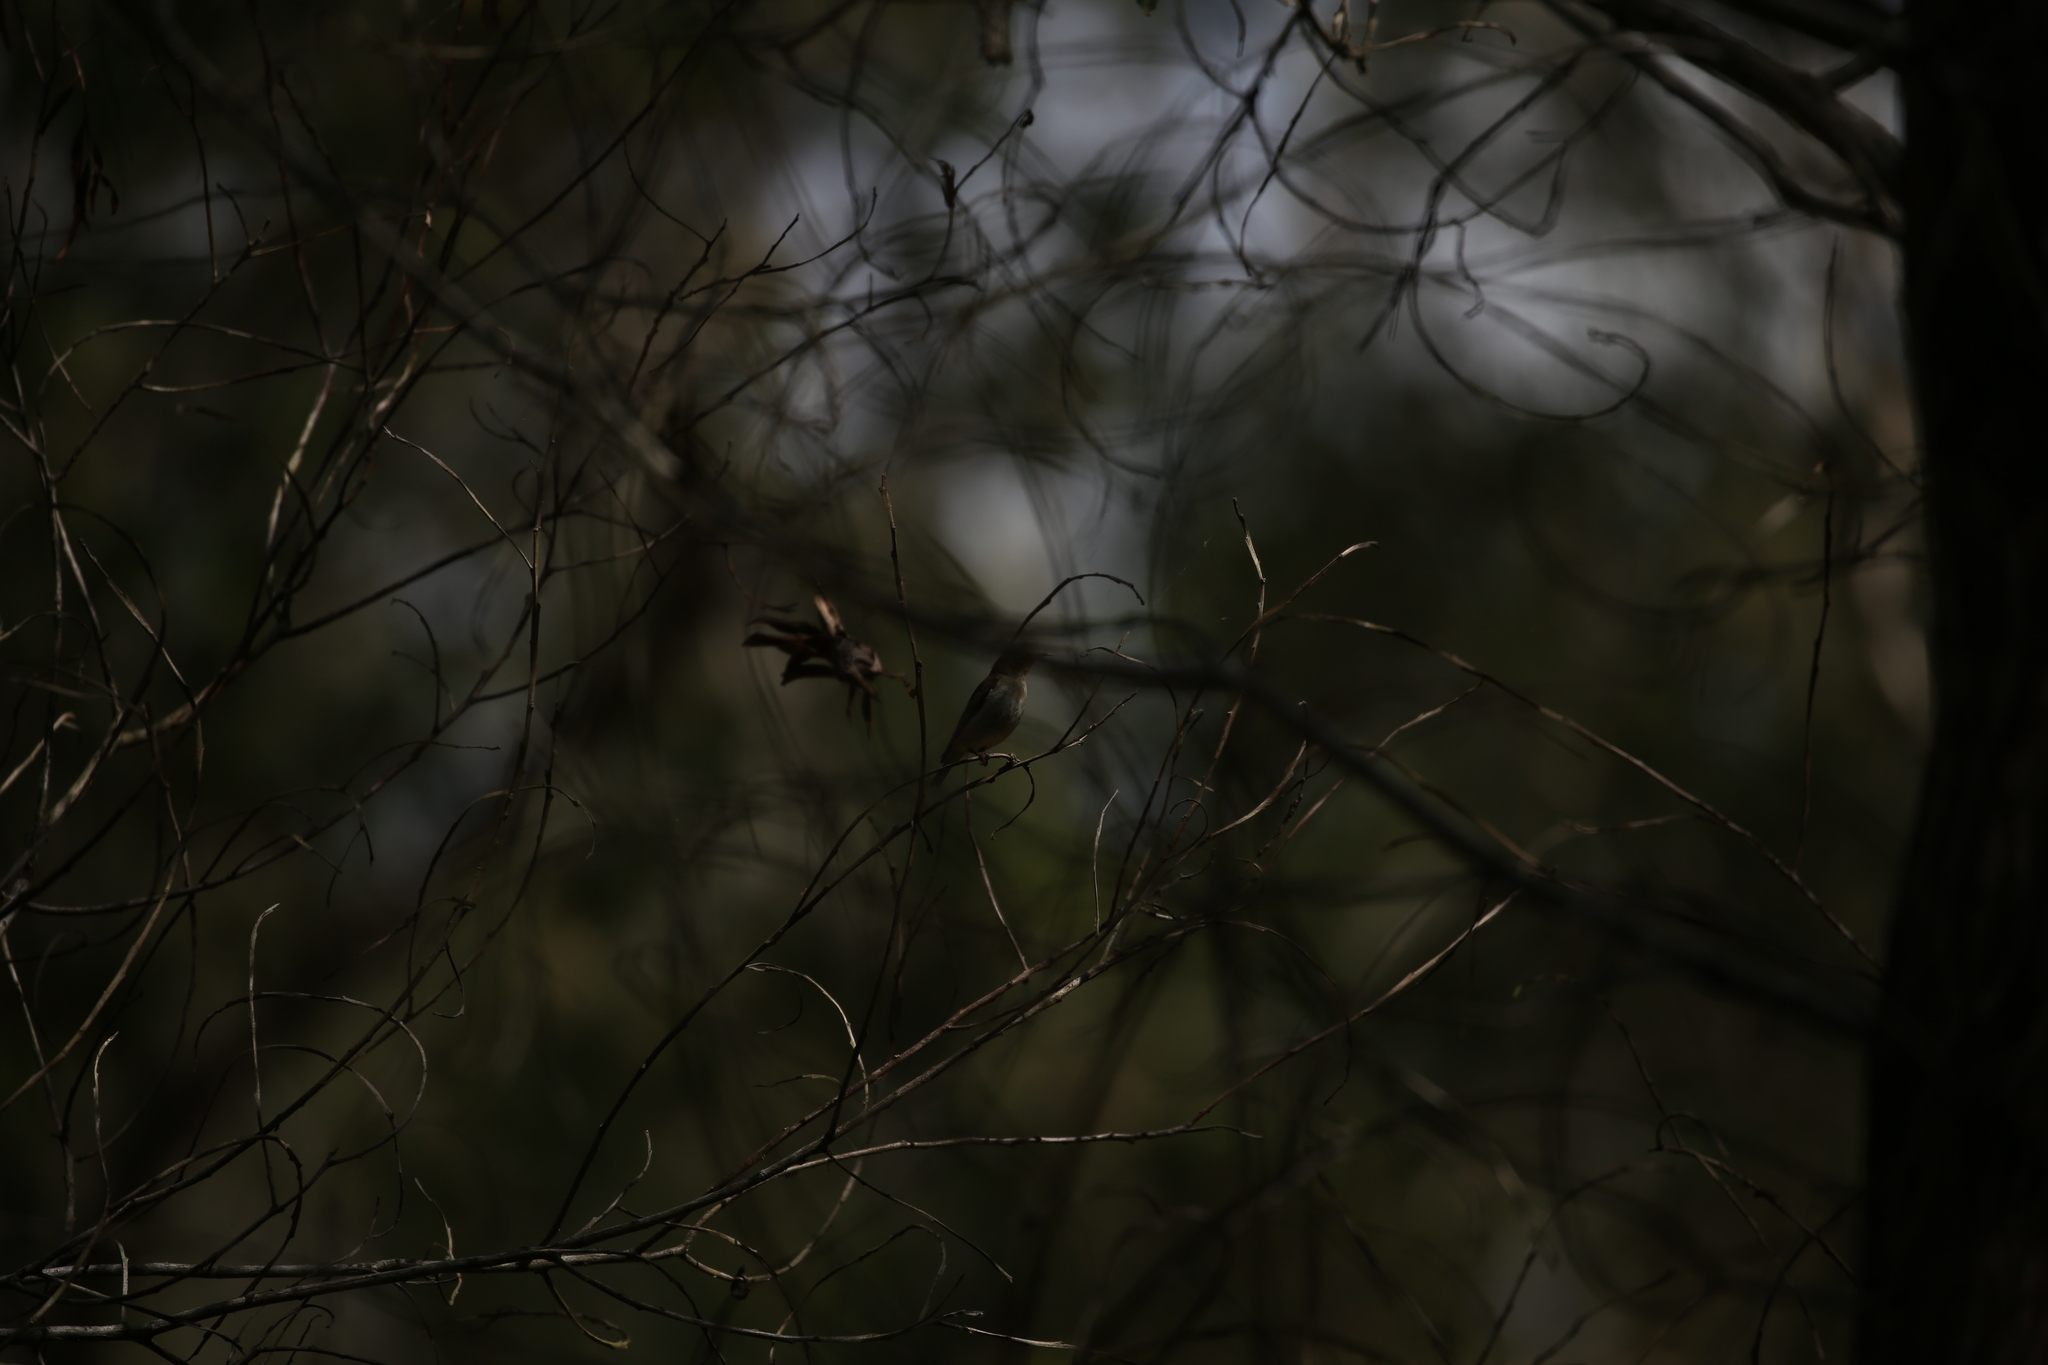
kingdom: Animalia
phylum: Chordata
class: Aves
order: Passeriformes
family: Meliphagidae
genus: Myzomela
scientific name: Myzomela sanguinolenta
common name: Scarlet myzomela
